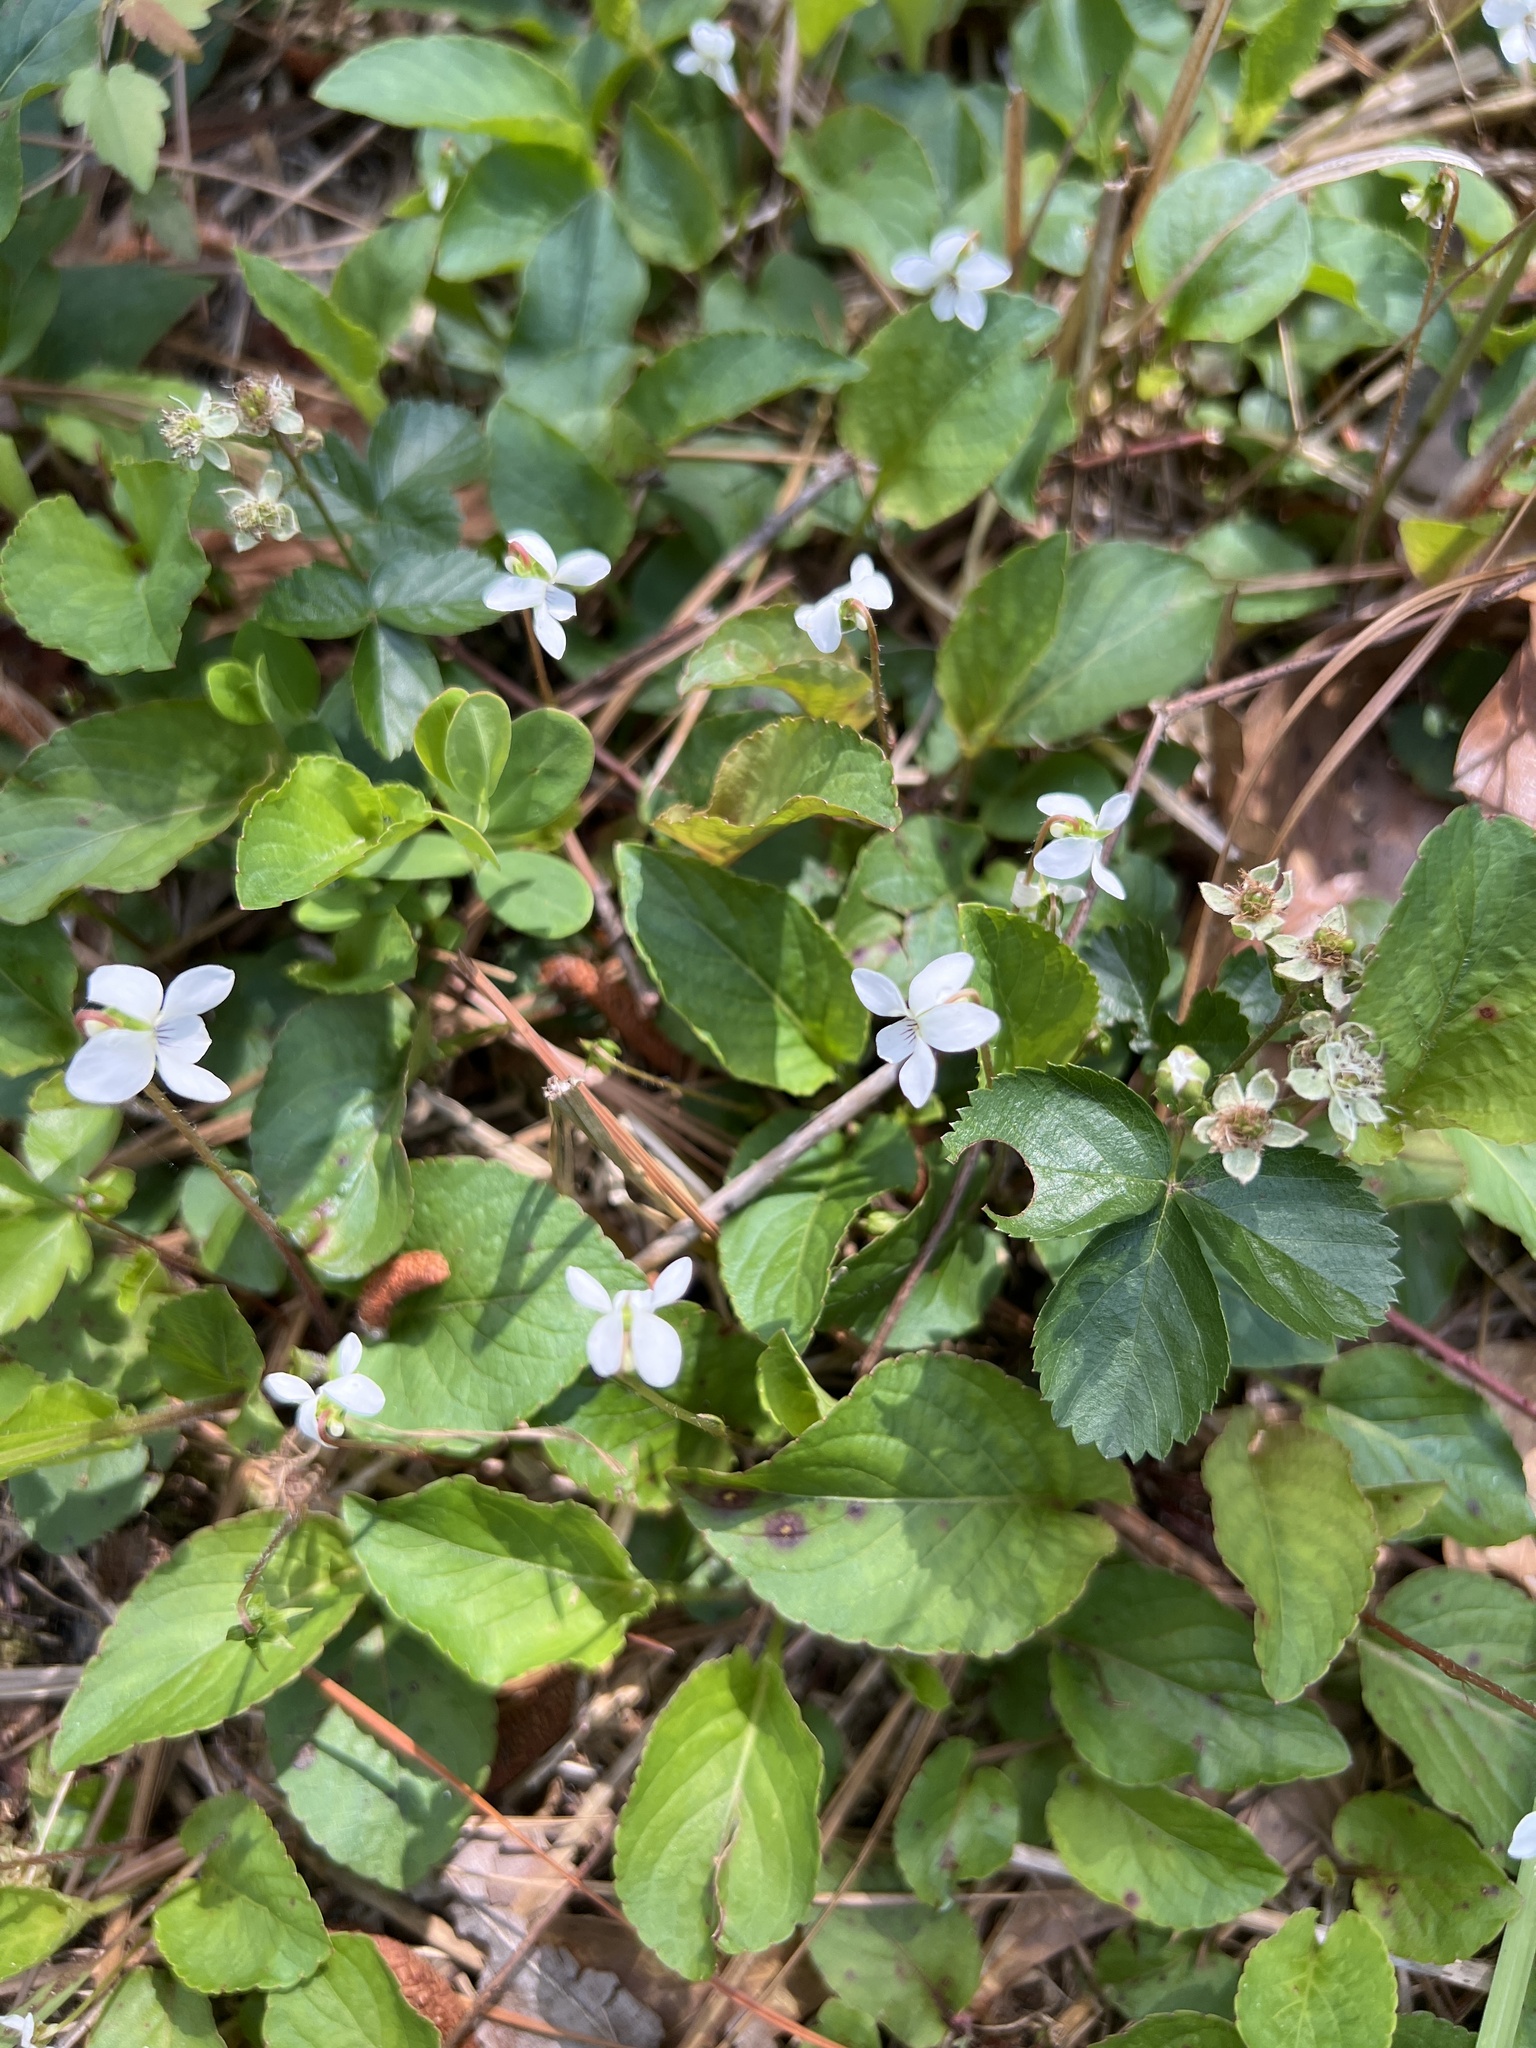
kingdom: Plantae
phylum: Tracheophyta
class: Magnoliopsida
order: Malpighiales
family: Violaceae
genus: Viola
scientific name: Viola primulifolia
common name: Primrose-leaf violet
